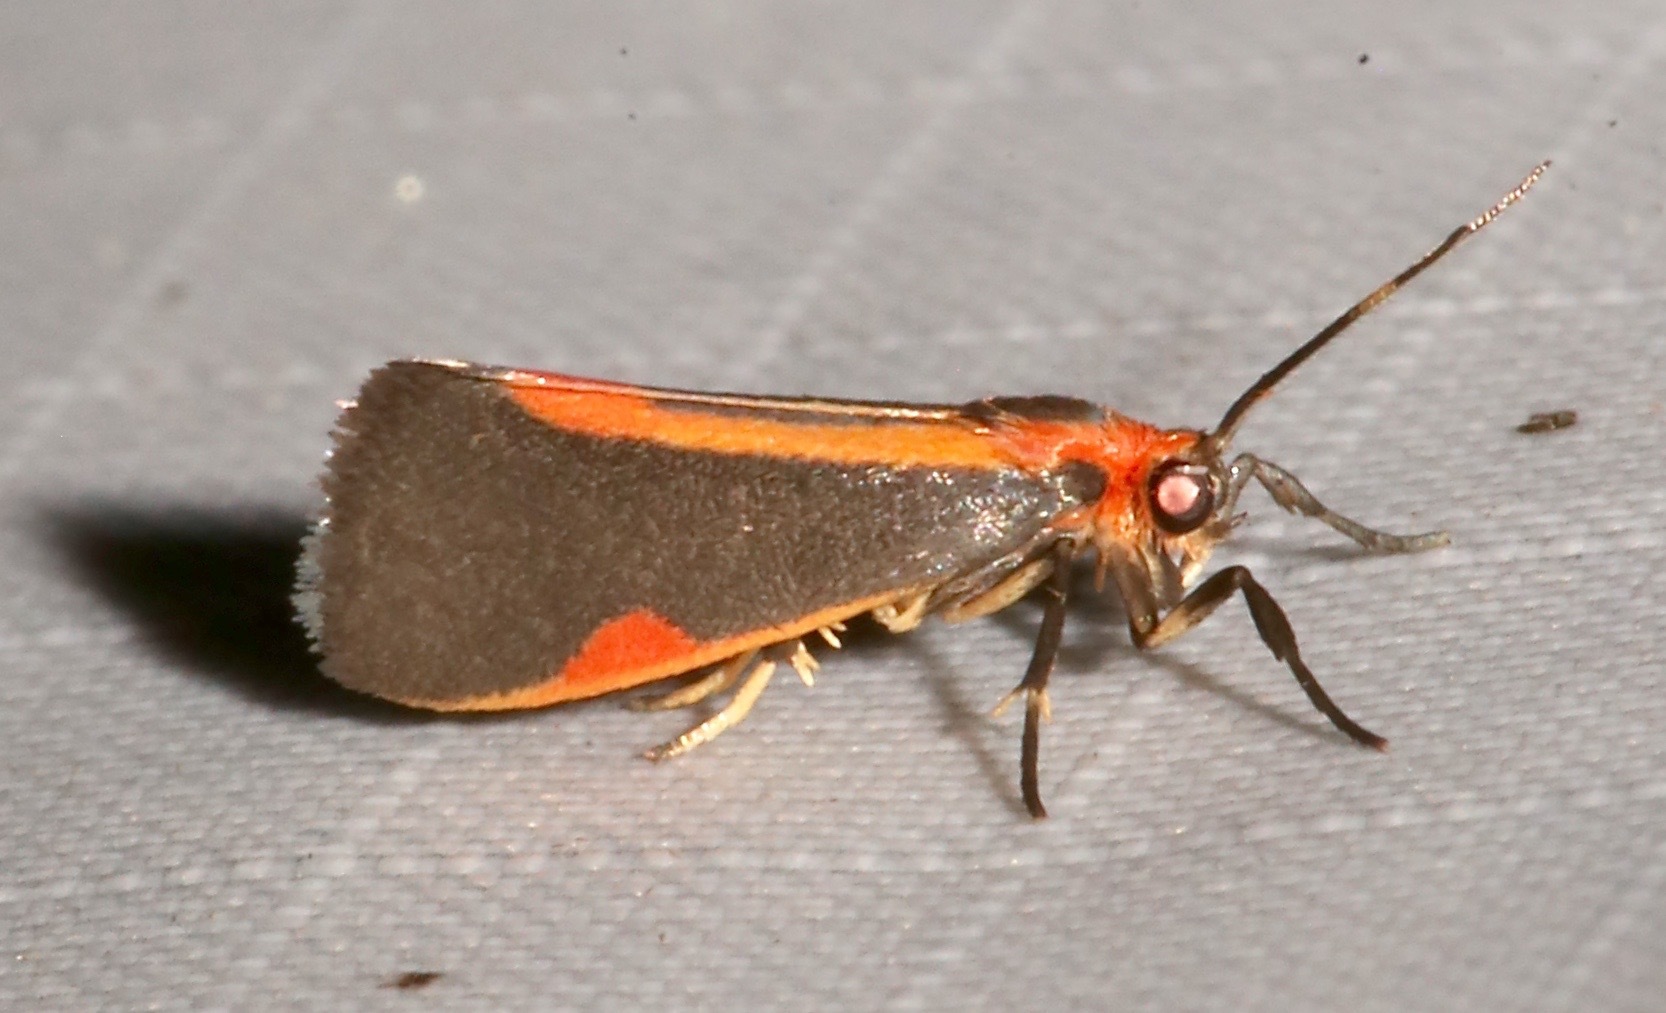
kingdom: Animalia
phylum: Arthropoda
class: Insecta
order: Lepidoptera
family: Erebidae
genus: Cisthene
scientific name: Cisthene subjecta
